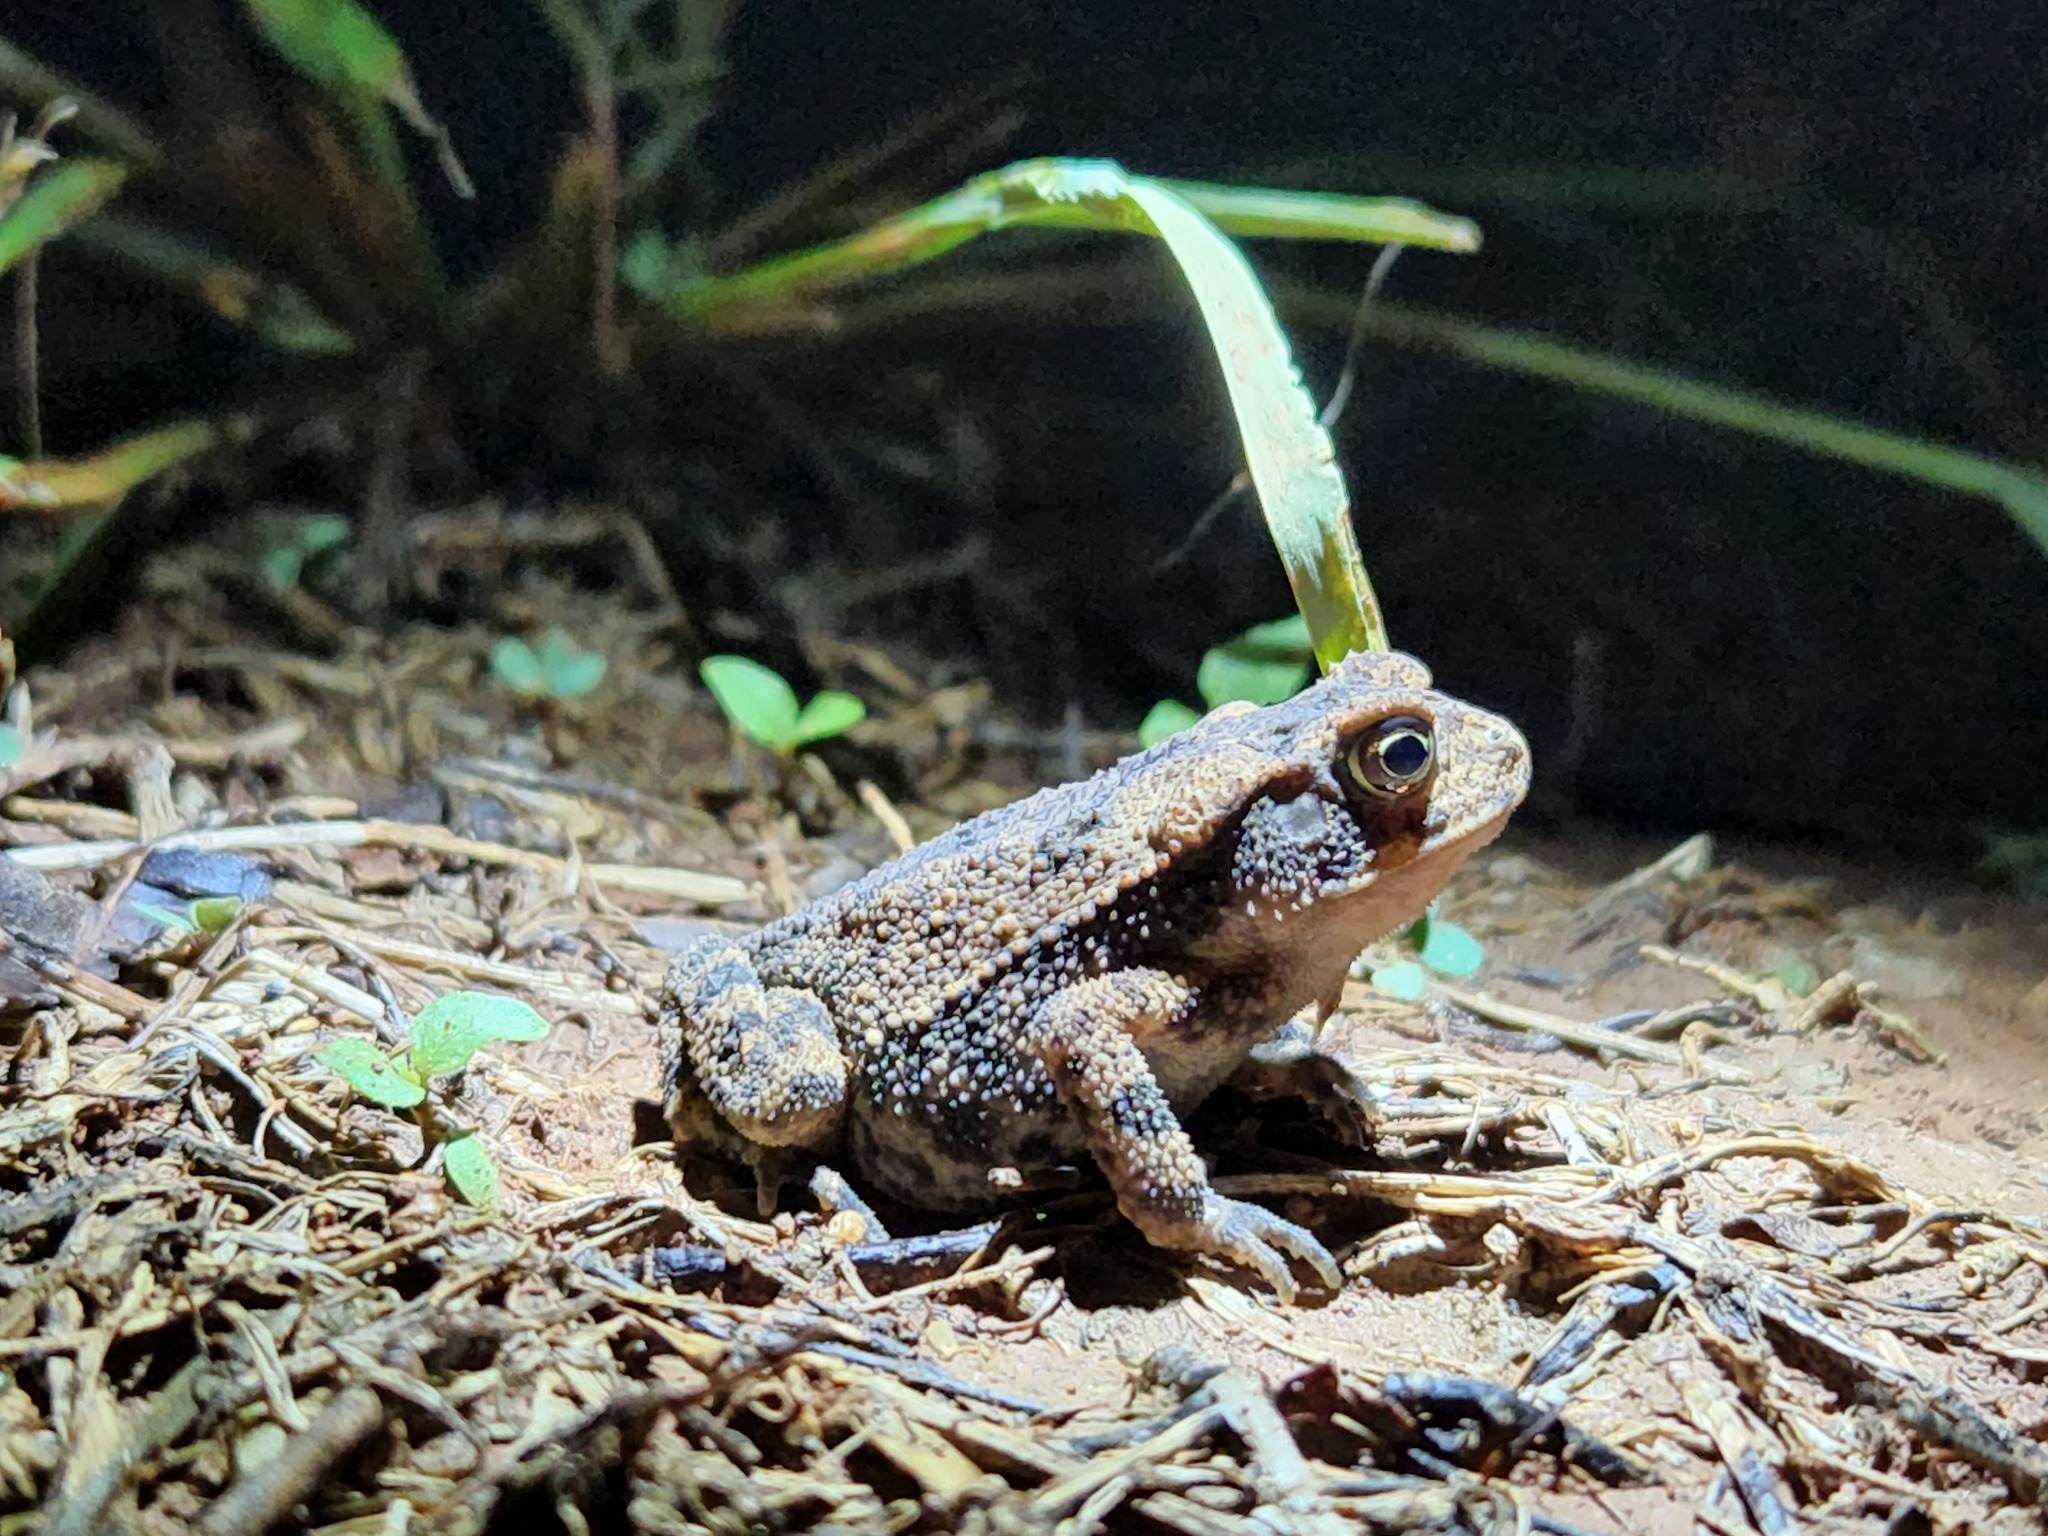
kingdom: Animalia
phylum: Chordata
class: Amphibia
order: Anura
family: Bufonidae
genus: Incilius
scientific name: Incilius nebulifer
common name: Gulf coast toad
